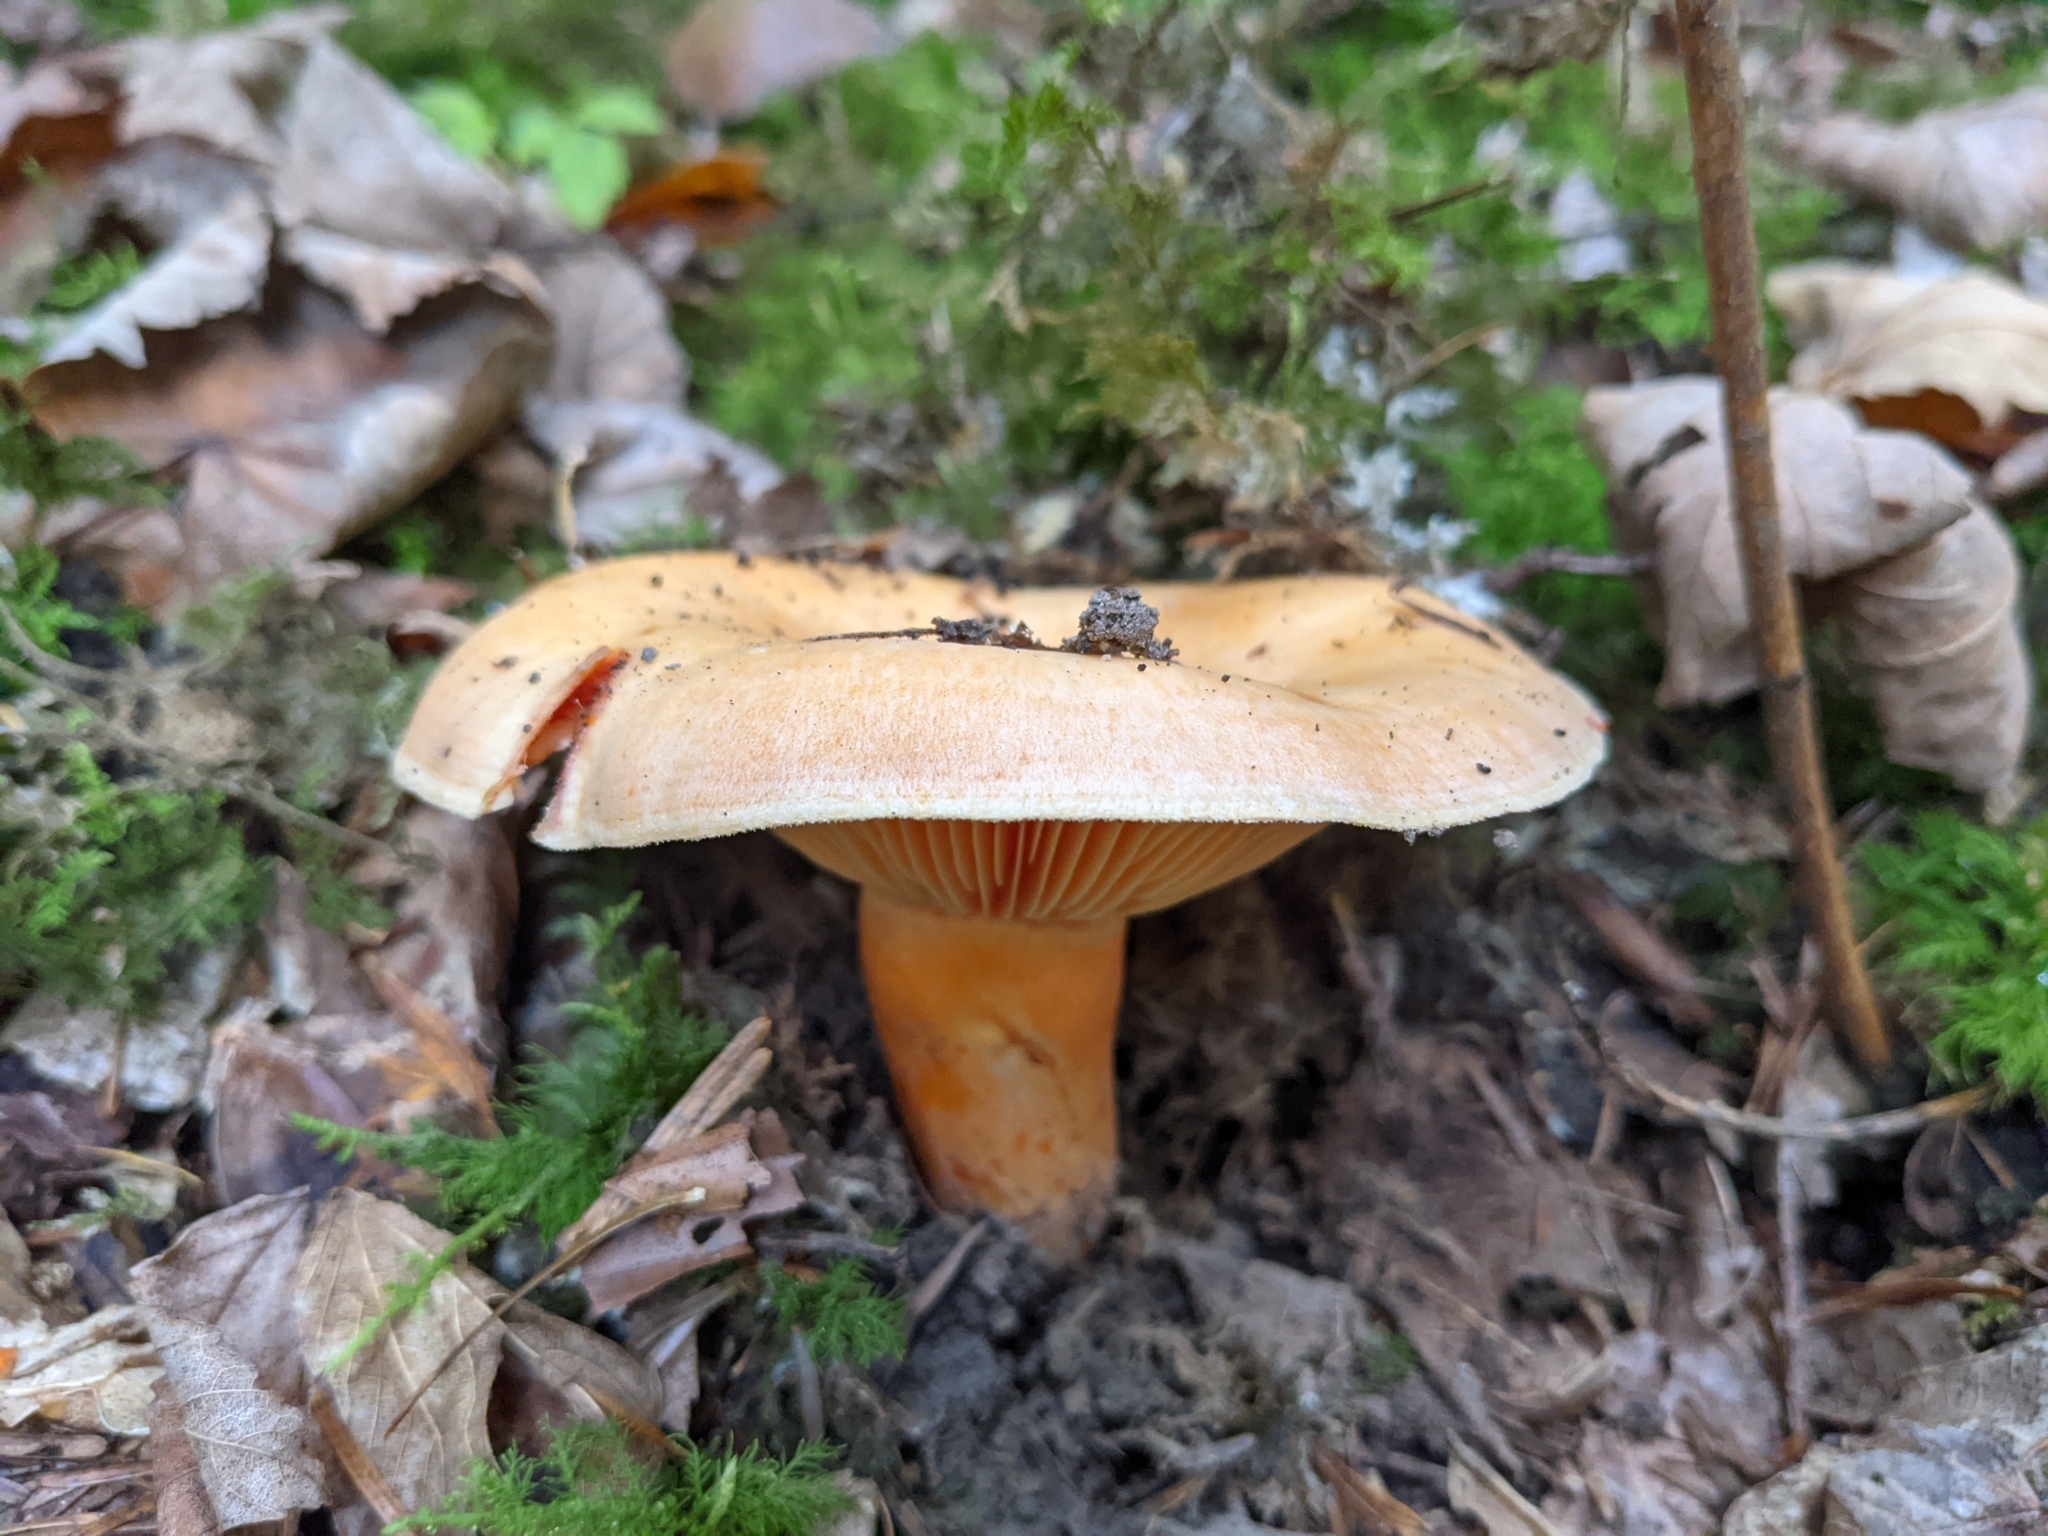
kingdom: Fungi
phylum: Basidiomycota
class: Agaricomycetes
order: Russulales
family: Russulaceae
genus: Lactarius
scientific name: Lactarius salmonicolor
